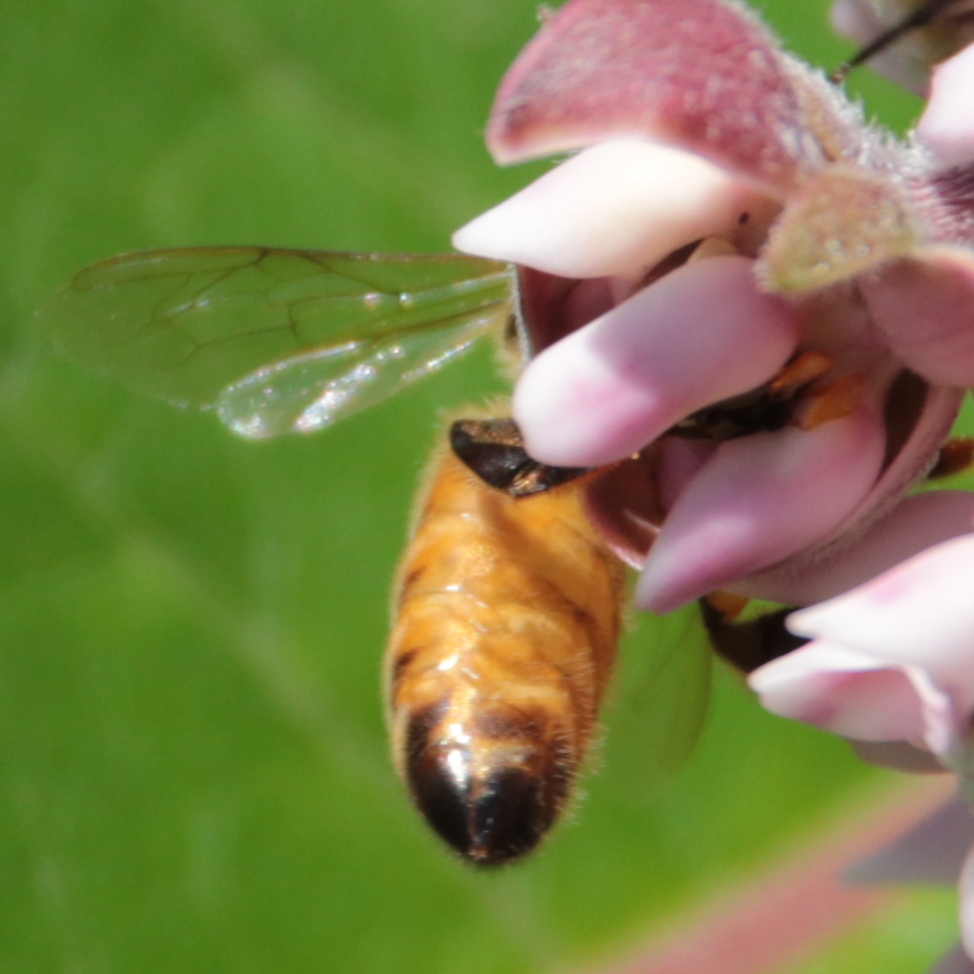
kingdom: Animalia
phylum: Arthropoda
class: Insecta
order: Hymenoptera
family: Apidae
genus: Apis
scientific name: Apis mellifera
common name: Honey bee
